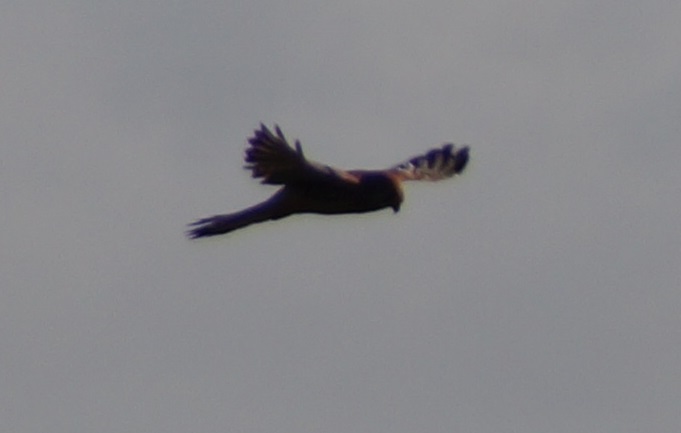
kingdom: Animalia
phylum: Chordata
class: Aves
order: Falconiformes
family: Falconidae
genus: Falco
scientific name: Falco tinnunculus
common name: Common kestrel
